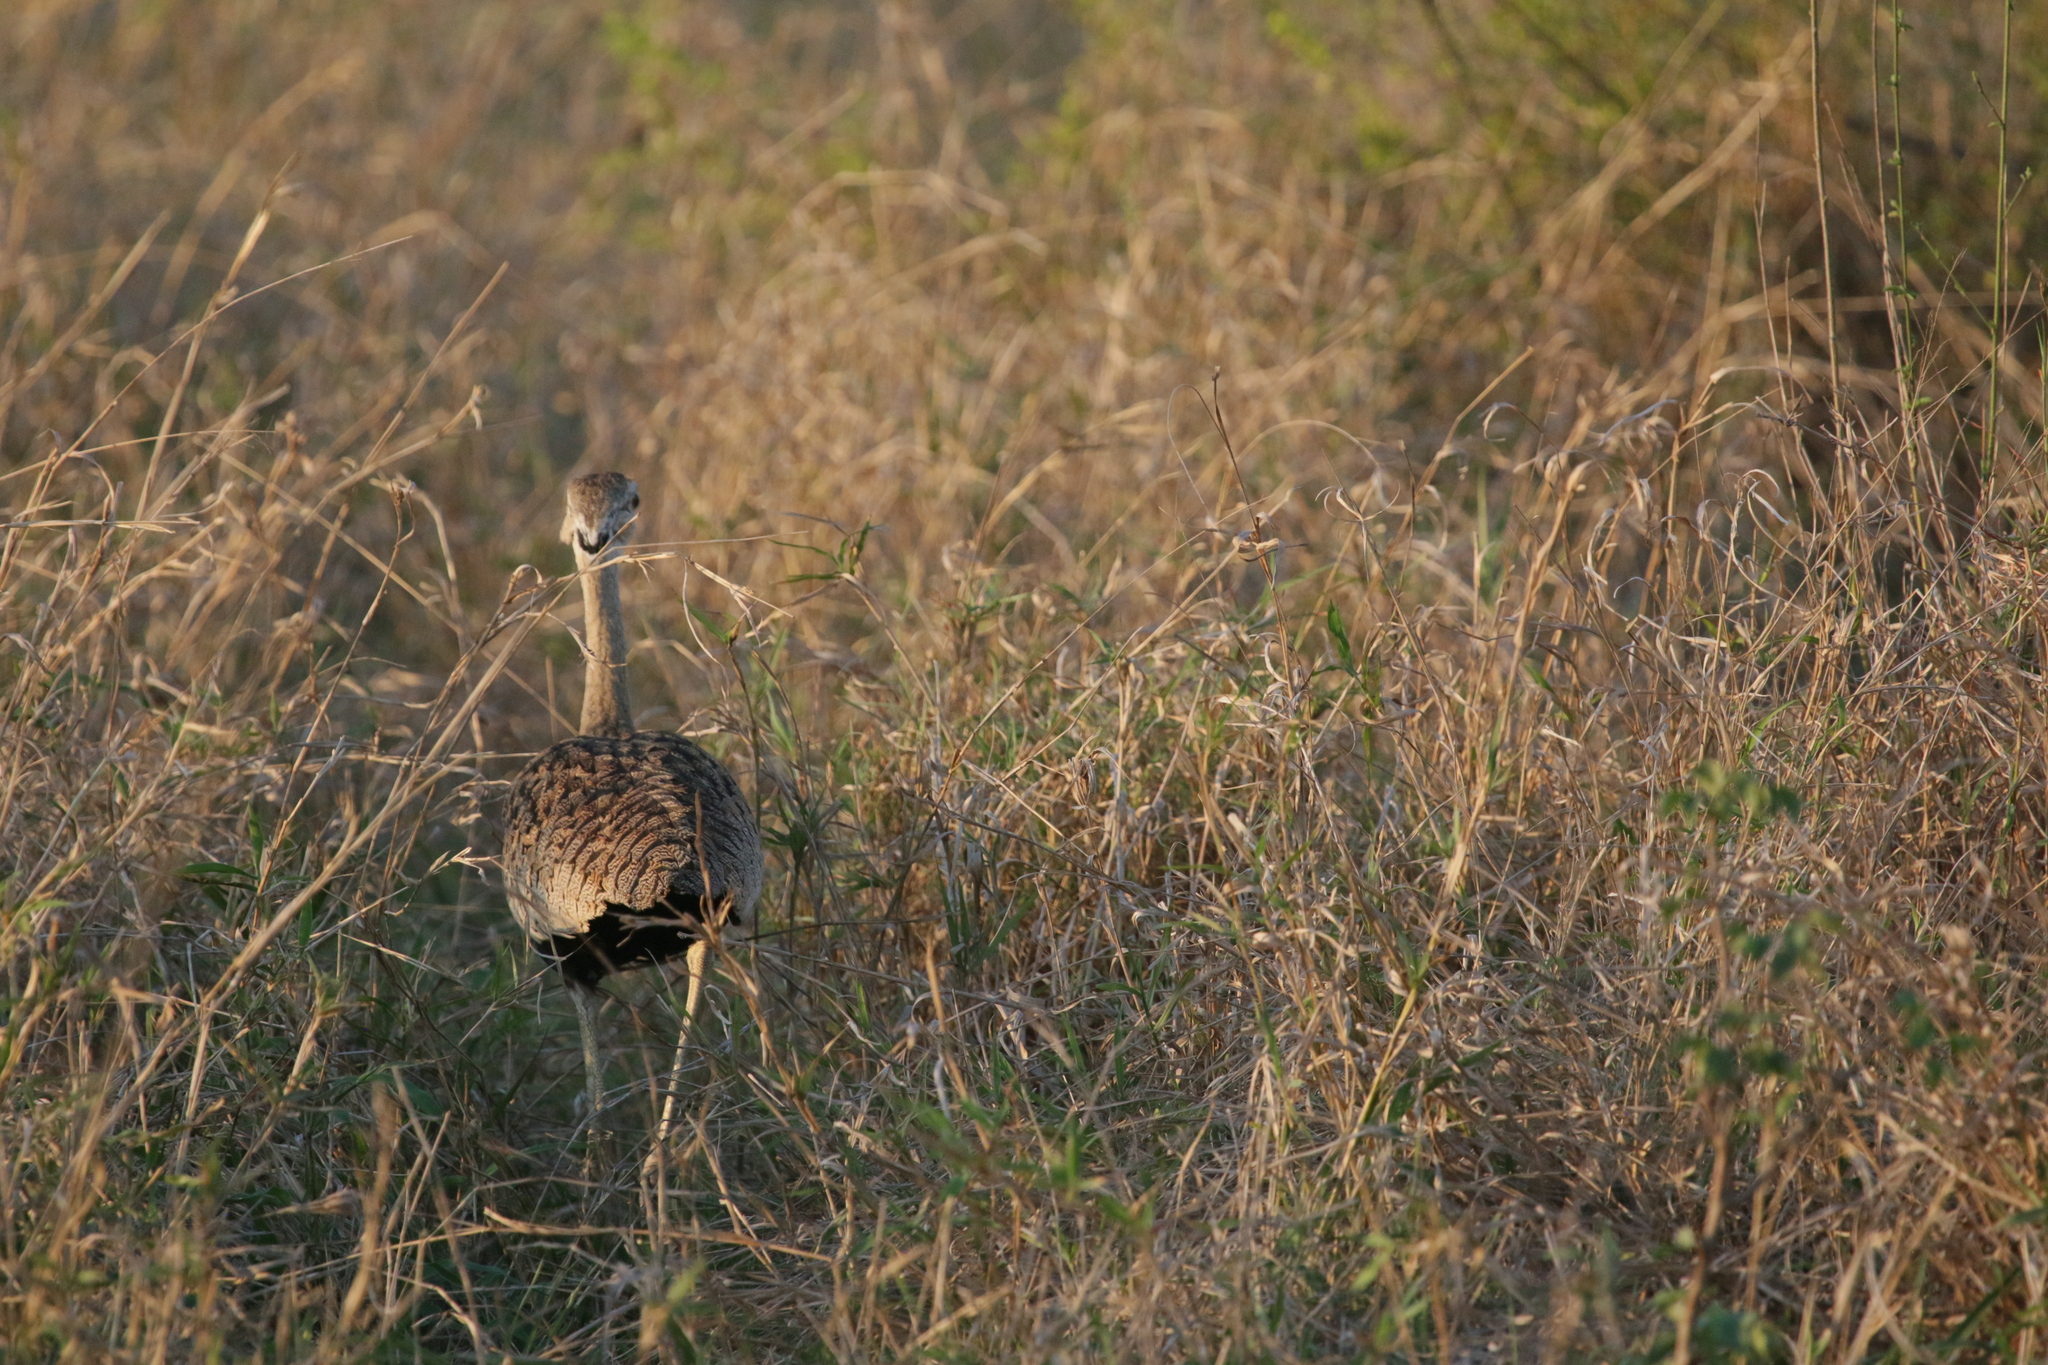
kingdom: Animalia
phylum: Chordata
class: Aves
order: Otidiformes
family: Otididae
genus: Lissotis
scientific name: Lissotis melanogaster
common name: Black-bellied bustard
